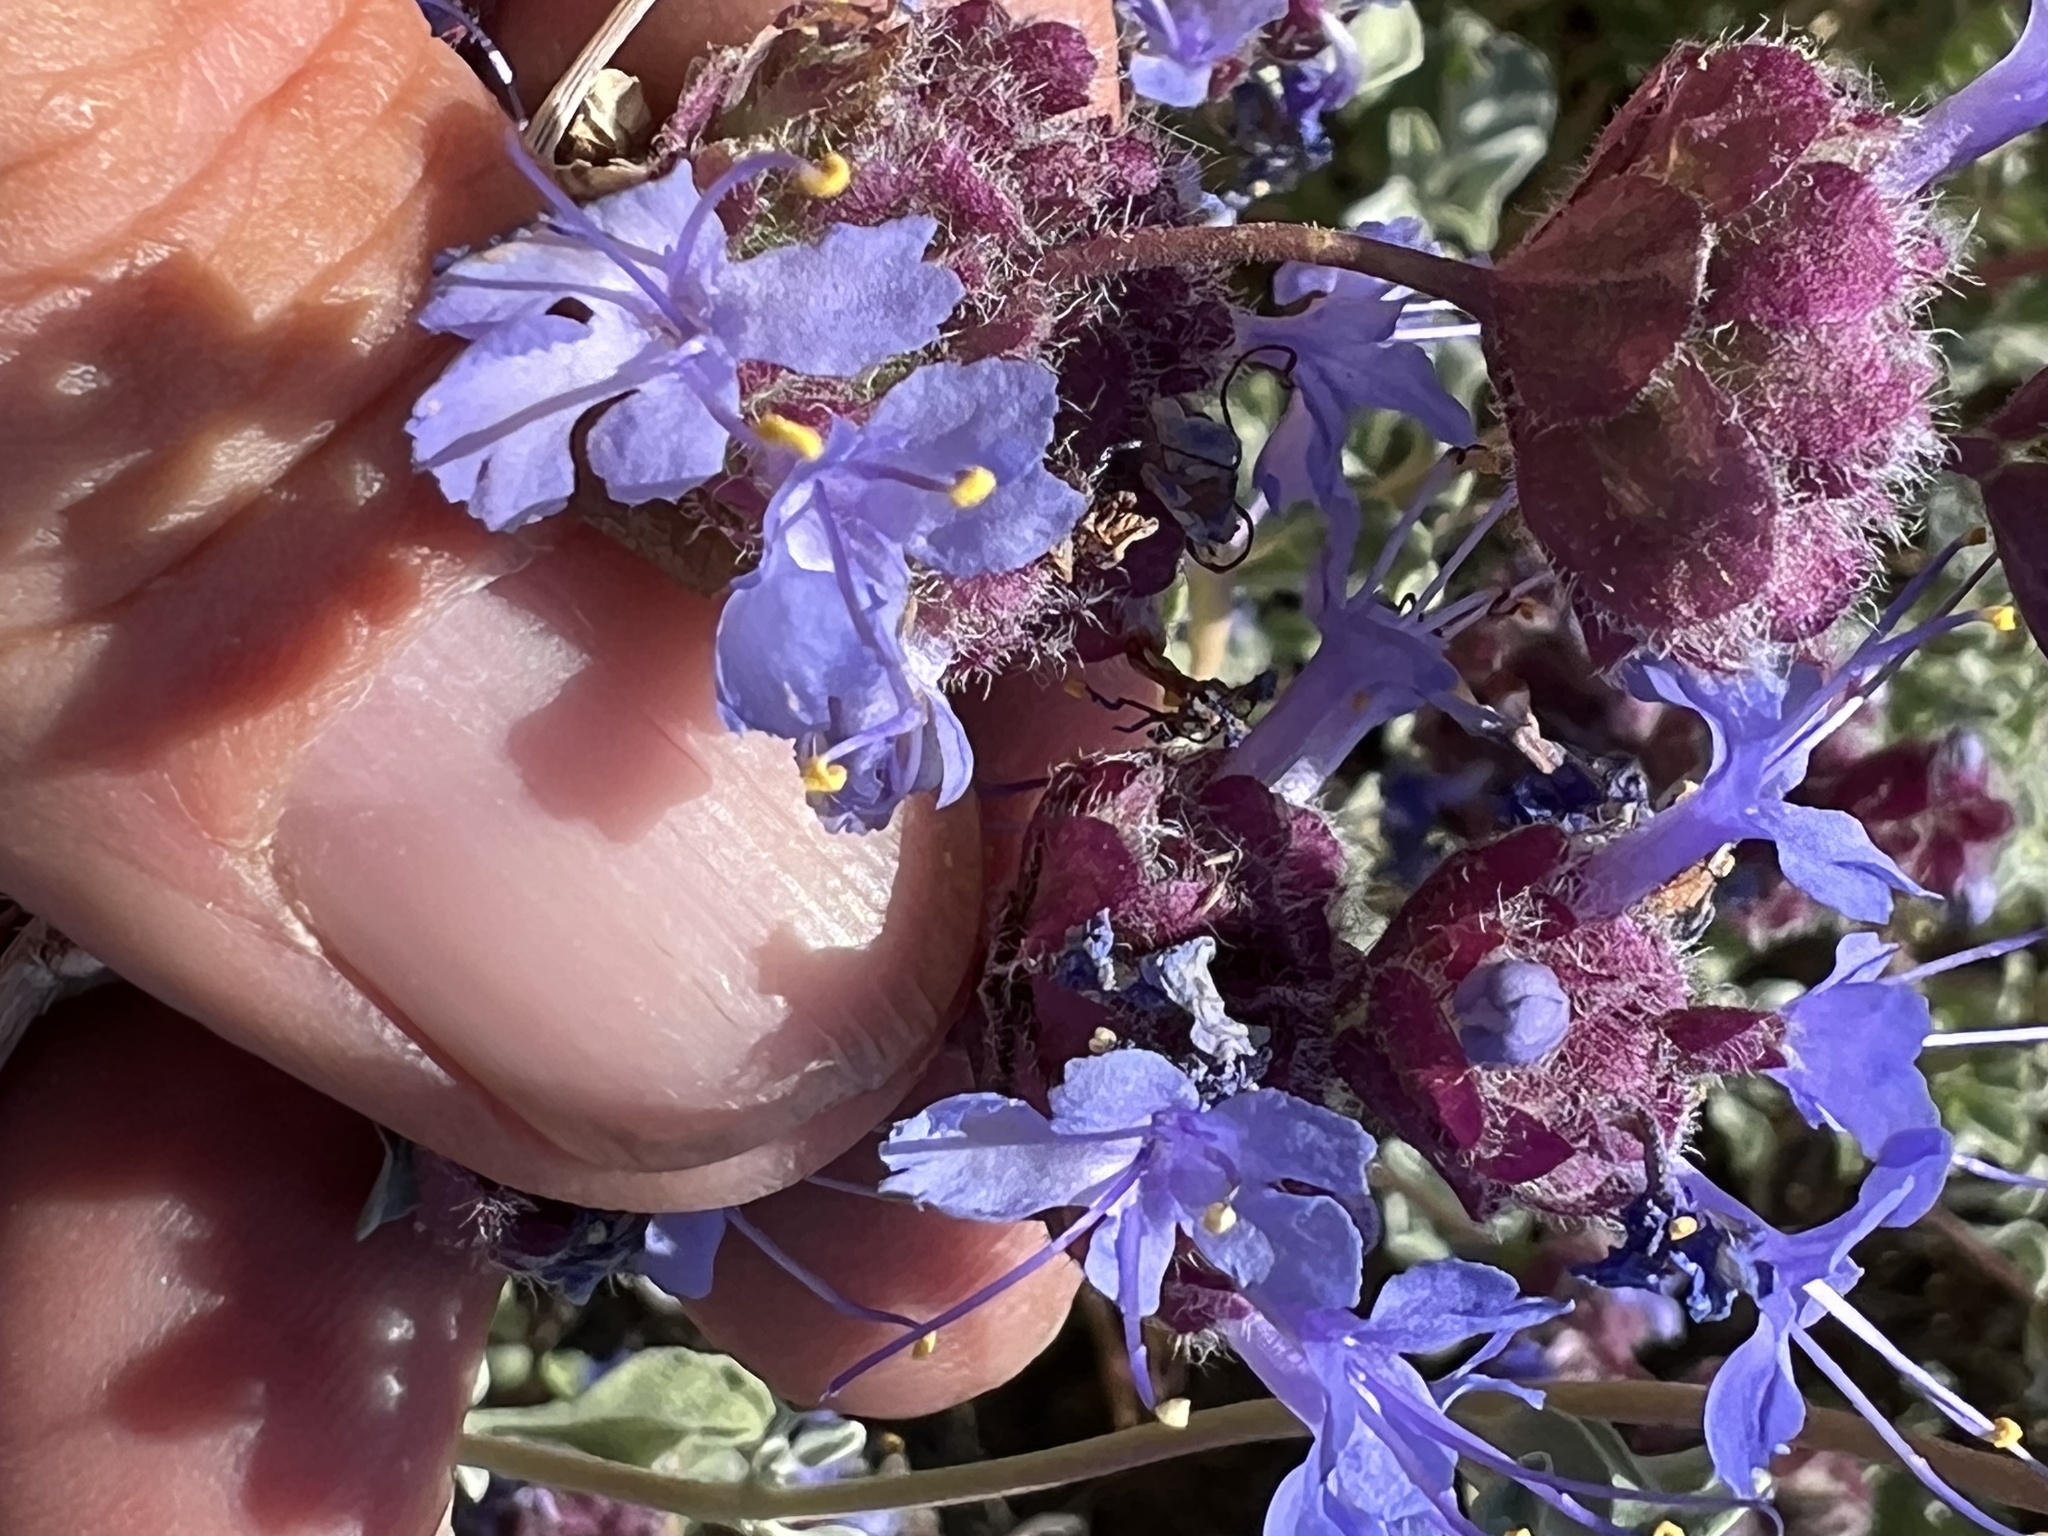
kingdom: Plantae
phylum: Tracheophyta
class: Magnoliopsida
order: Lamiales
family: Lamiaceae
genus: Salvia
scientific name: Salvia dorrii
